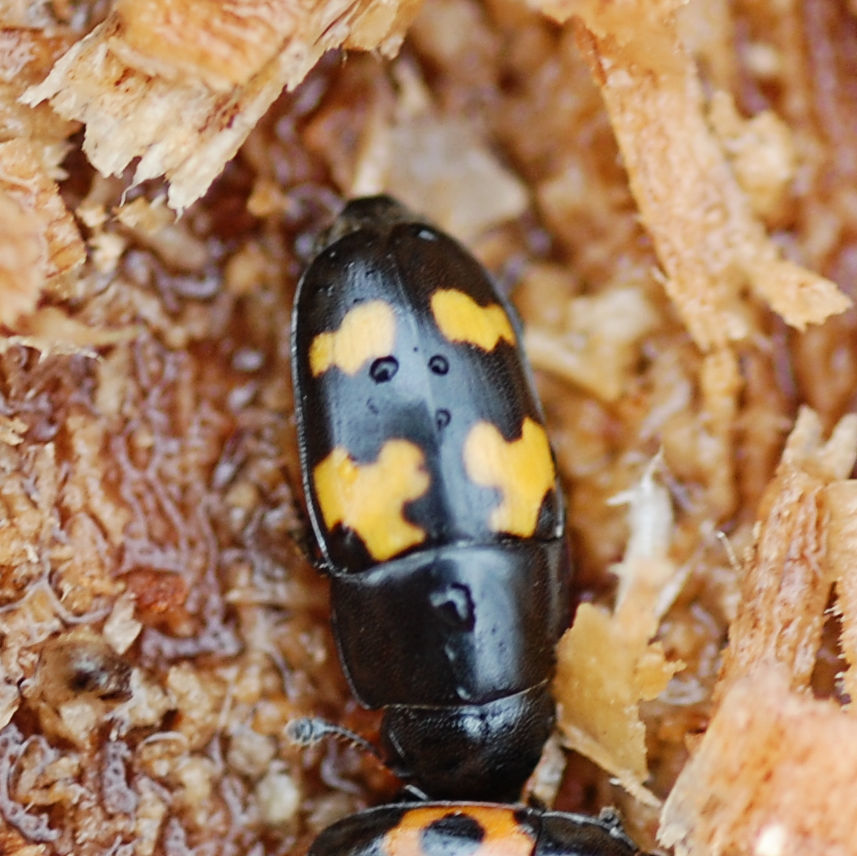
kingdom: Animalia
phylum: Arthropoda
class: Insecta
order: Coleoptera
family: Nitidulidae
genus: Glischrochilus
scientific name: Glischrochilus fasciatus
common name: Picnic beetle
